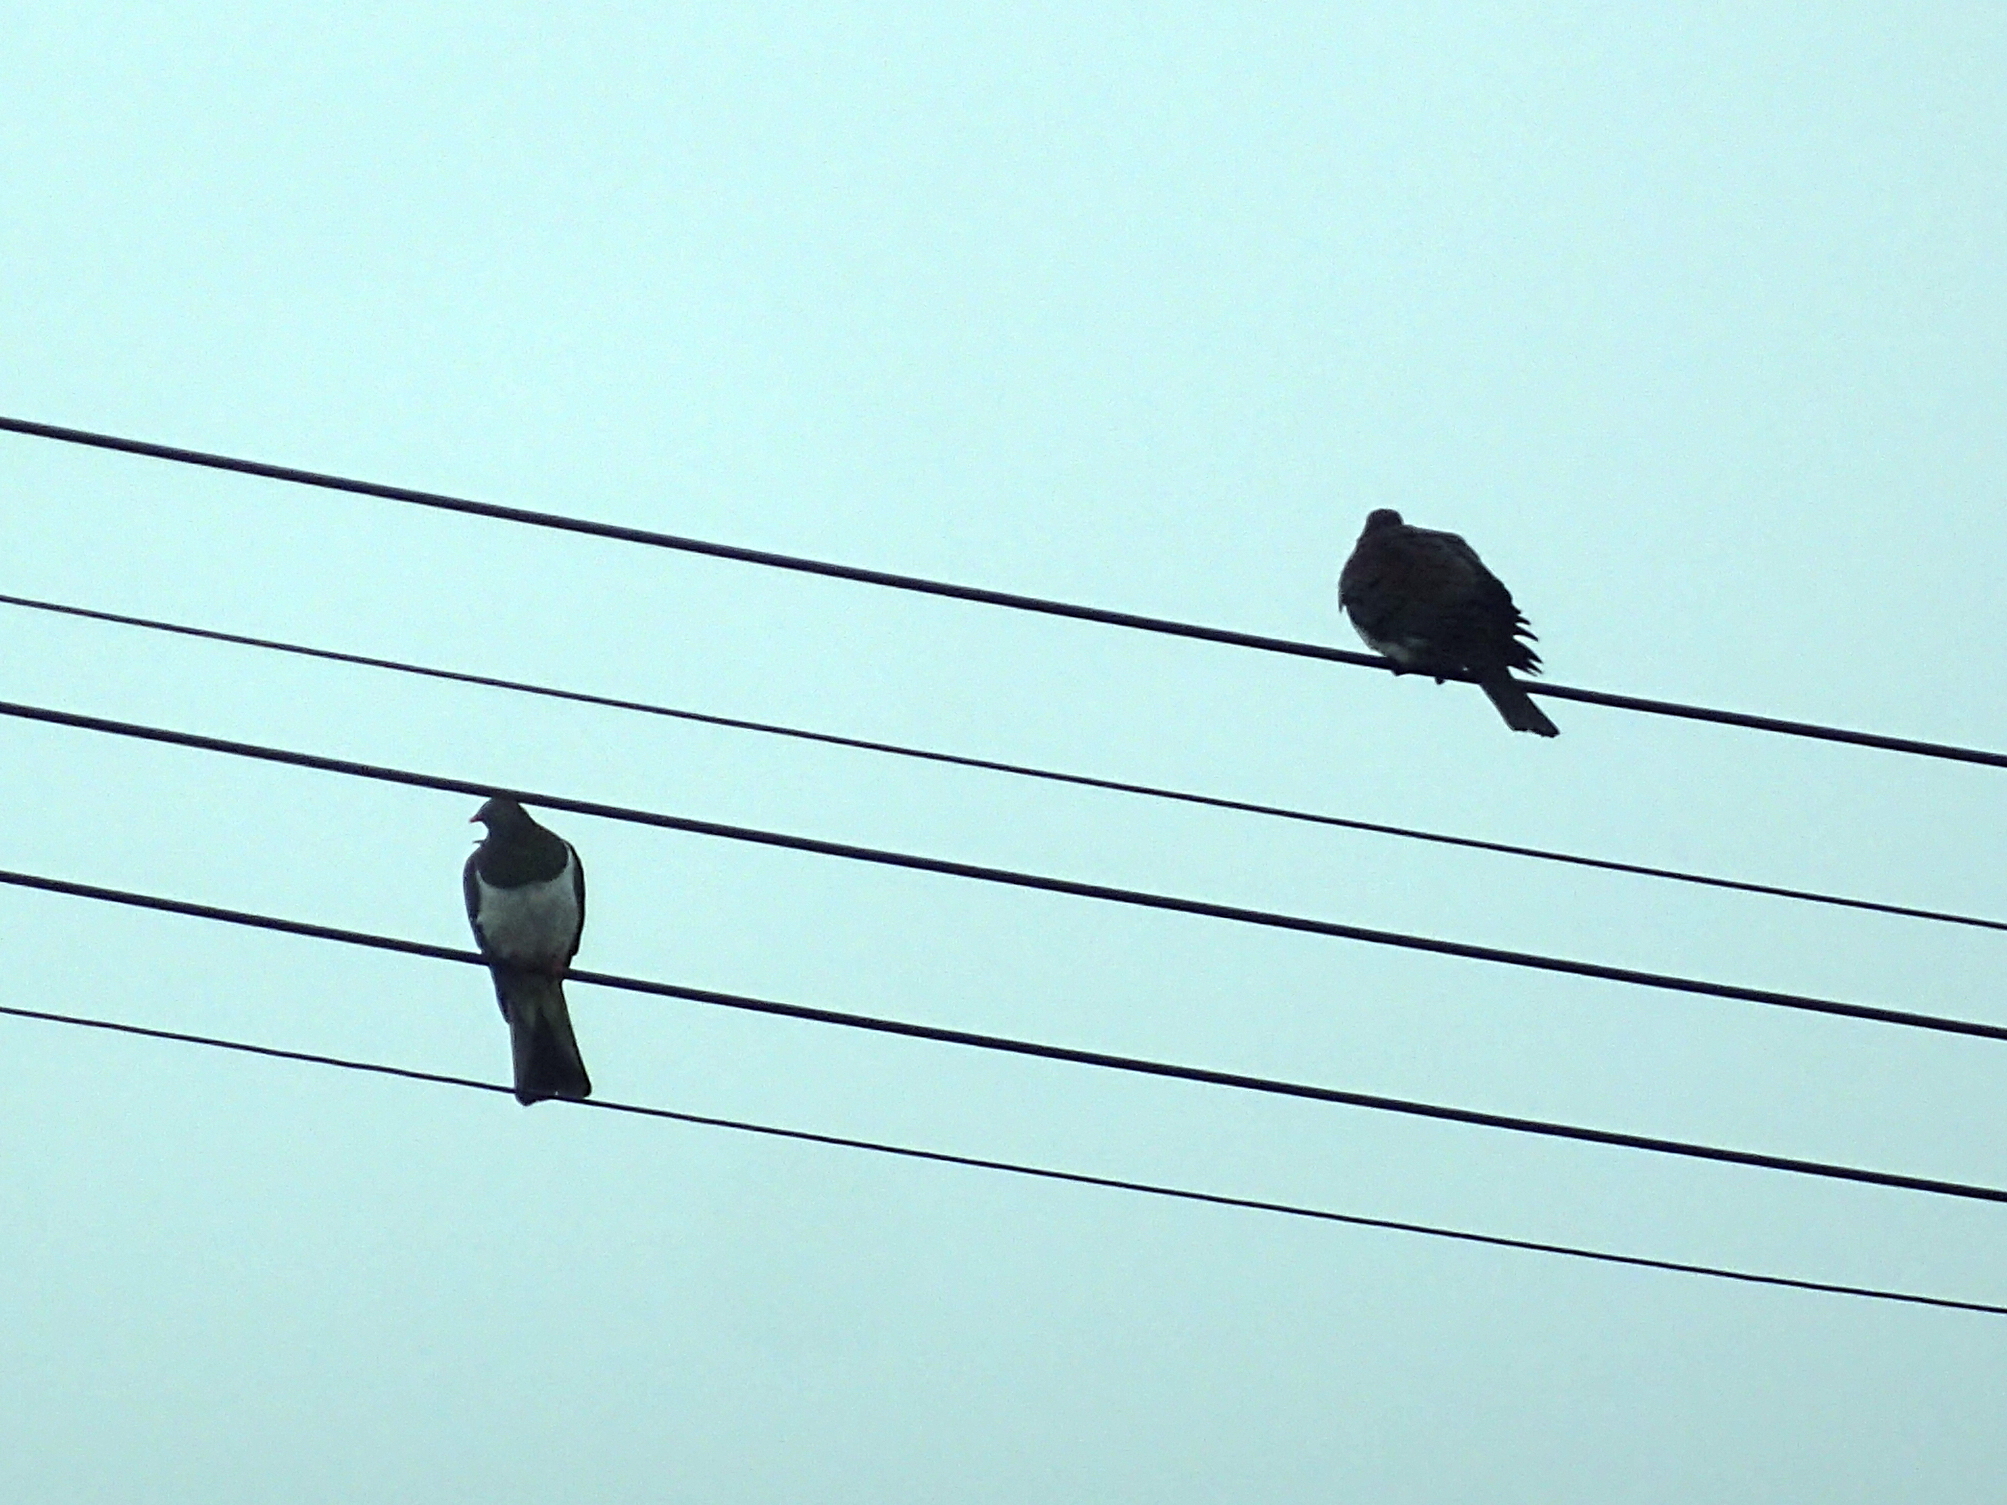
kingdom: Animalia
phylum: Chordata
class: Aves
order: Columbiformes
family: Columbidae
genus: Hemiphaga
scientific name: Hemiphaga novaeseelandiae
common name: New zealand pigeon
